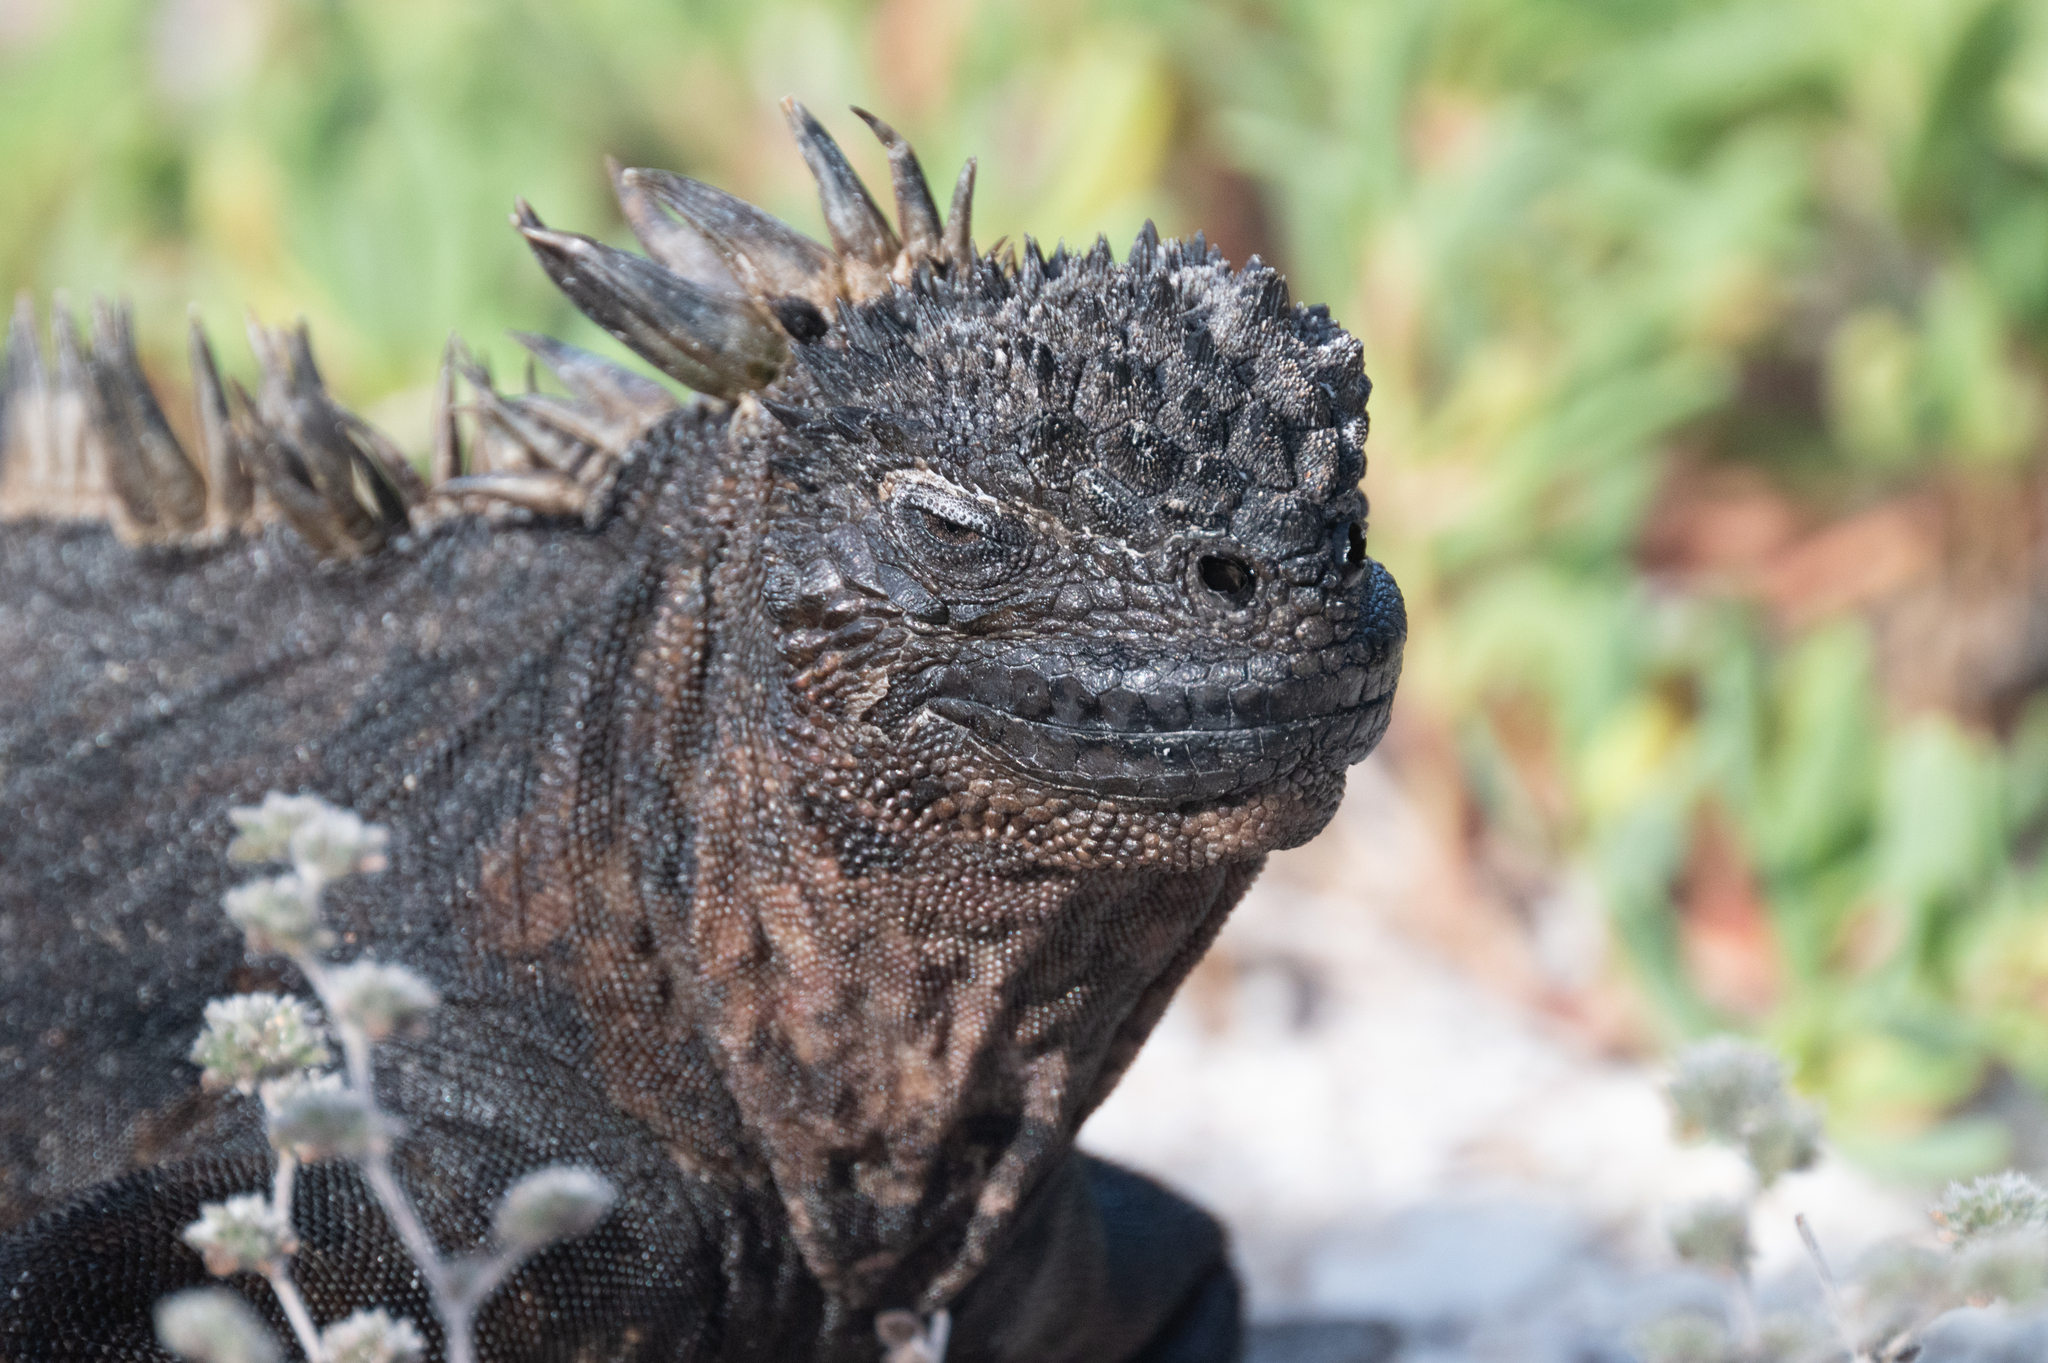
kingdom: Animalia
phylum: Chordata
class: Squamata
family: Iguanidae
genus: Amblyrhynchus
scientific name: Amblyrhynchus cristatus
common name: Marine iguana
